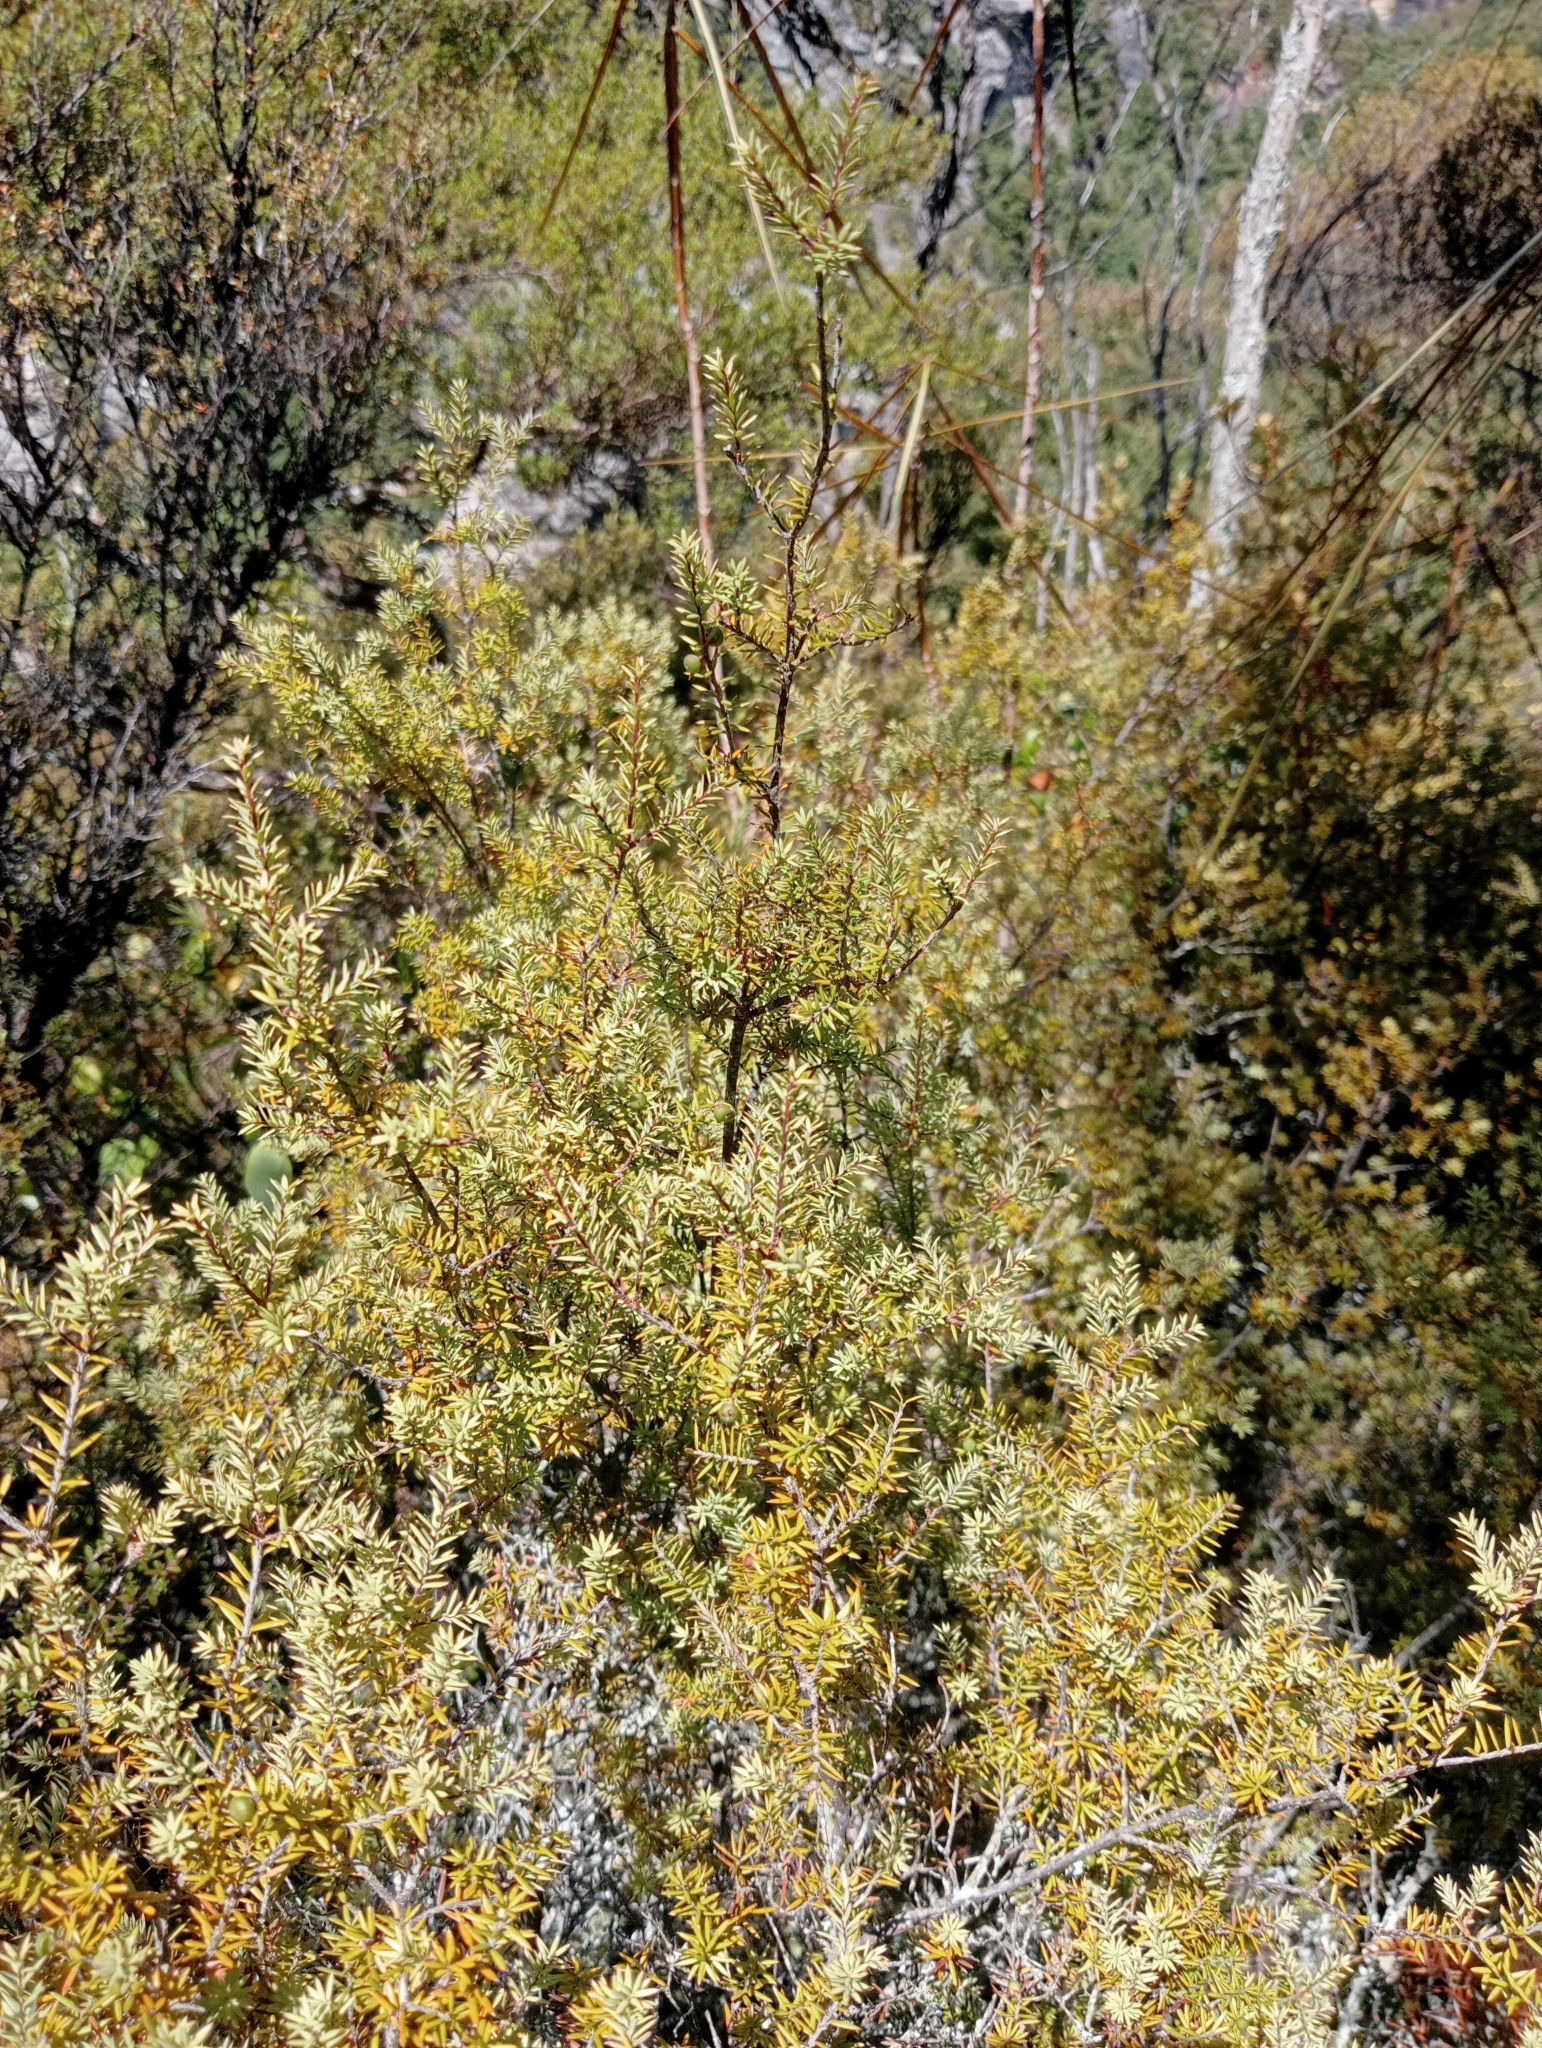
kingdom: Plantae
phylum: Tracheophyta
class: Magnoliopsida
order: Ericales
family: Ericaceae
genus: Leptecophylla
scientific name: Leptecophylla juniperina
